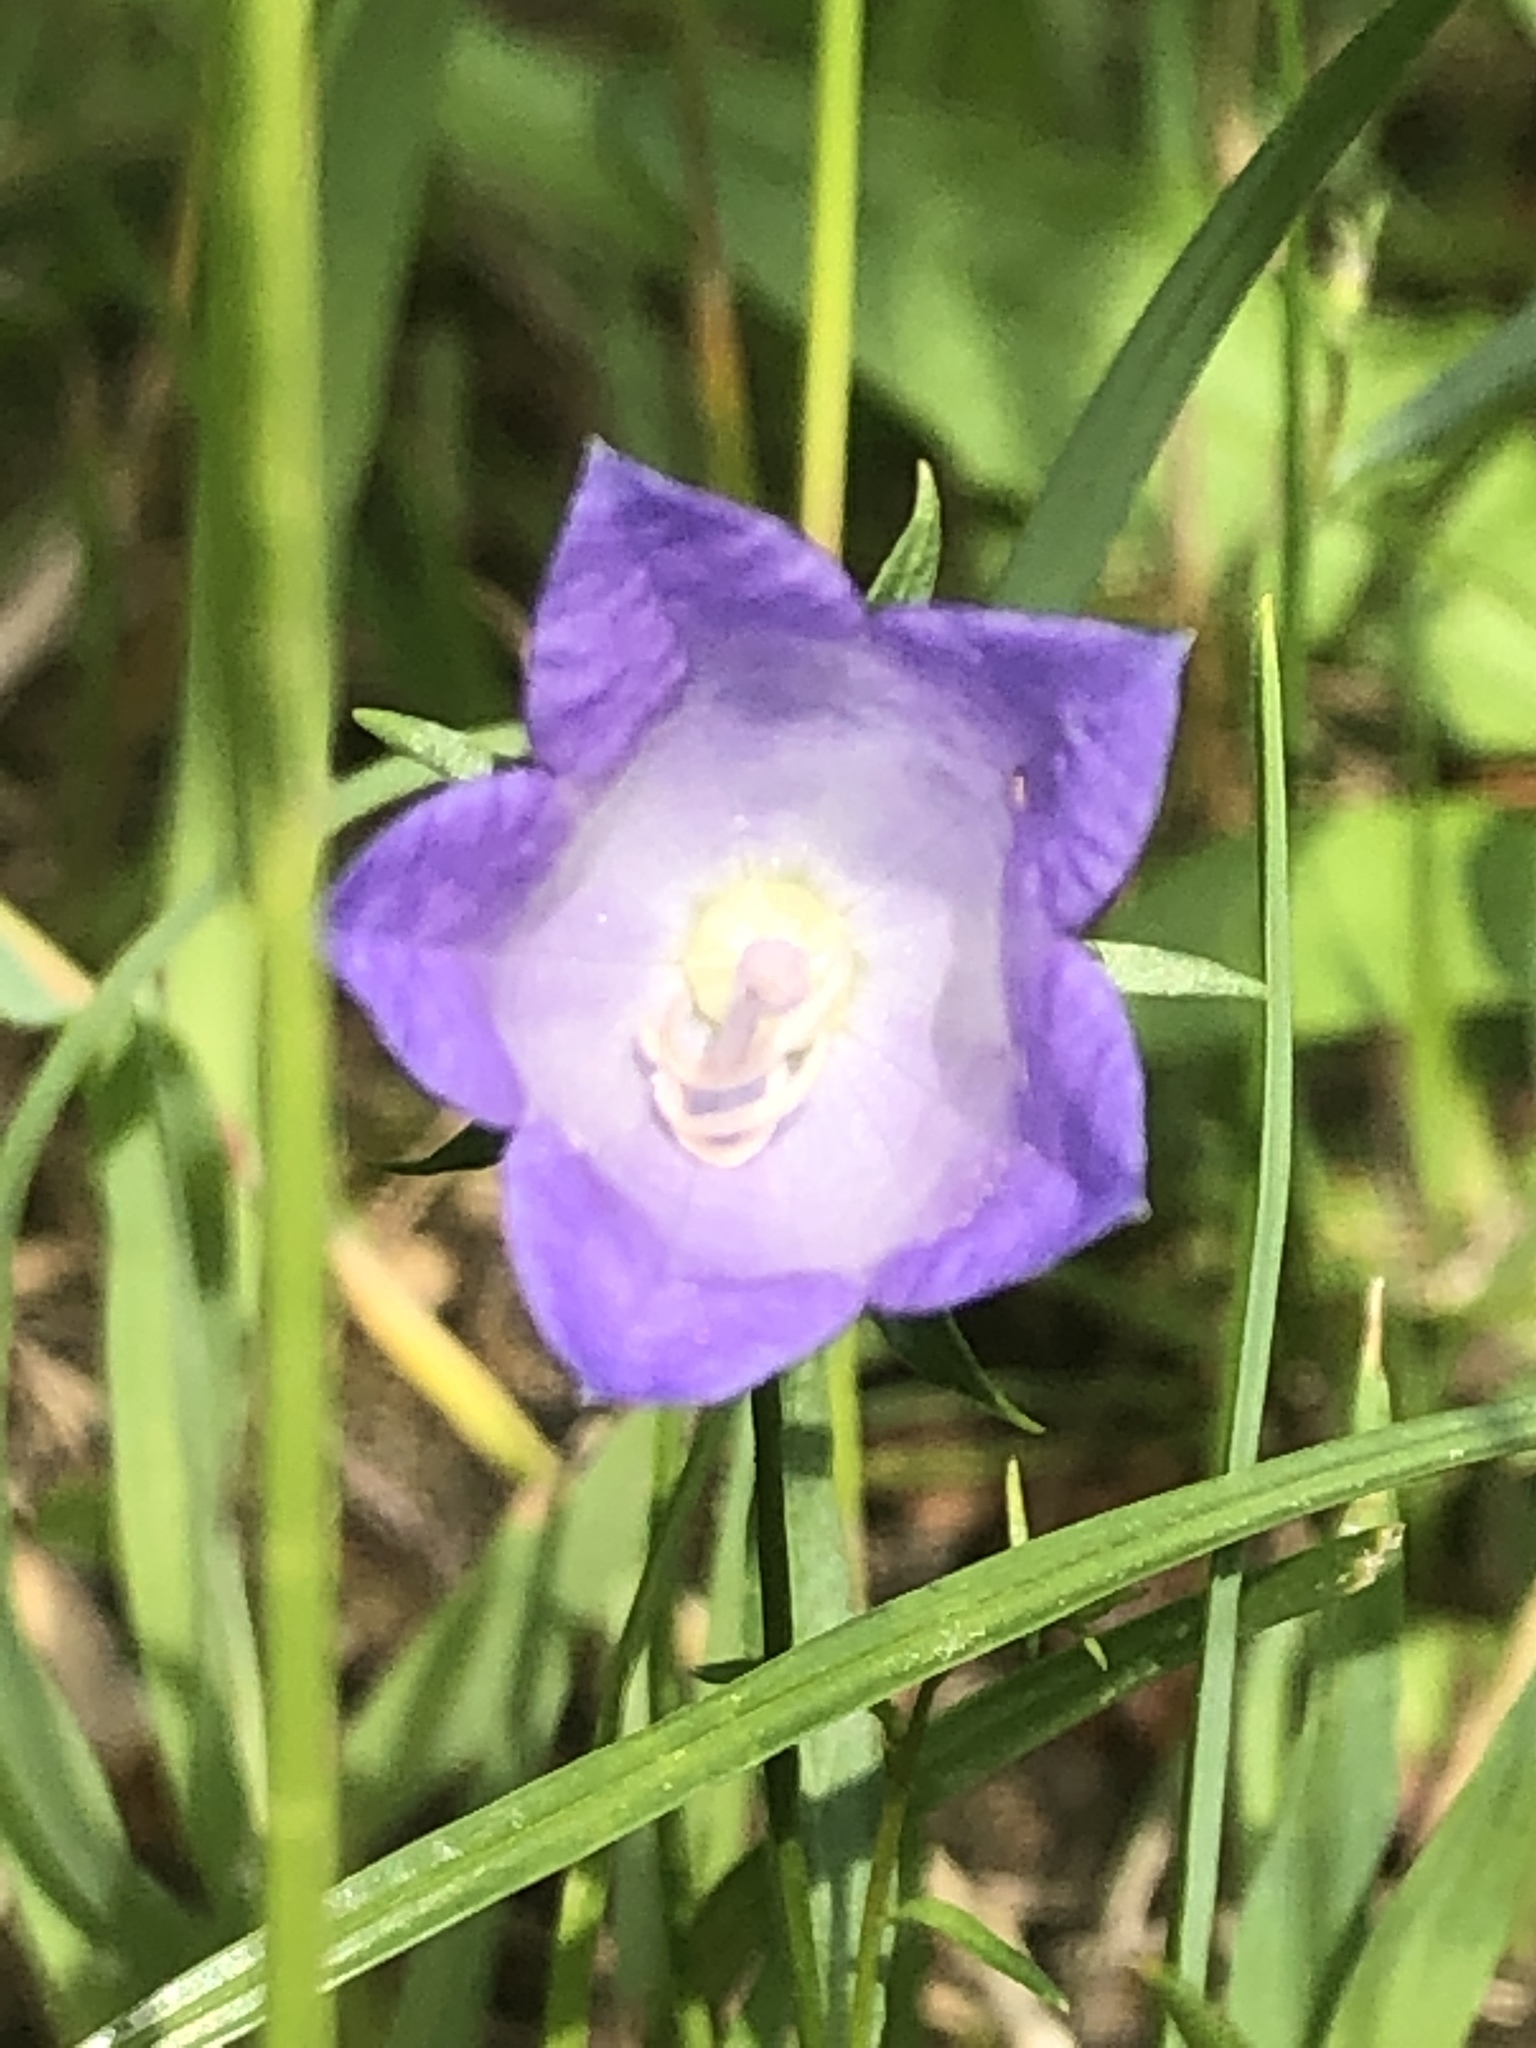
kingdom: Plantae
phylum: Tracheophyta
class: Magnoliopsida
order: Asterales
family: Campanulaceae
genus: Campanula
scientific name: Campanula persicifolia
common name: Peach-leaved bellflower
